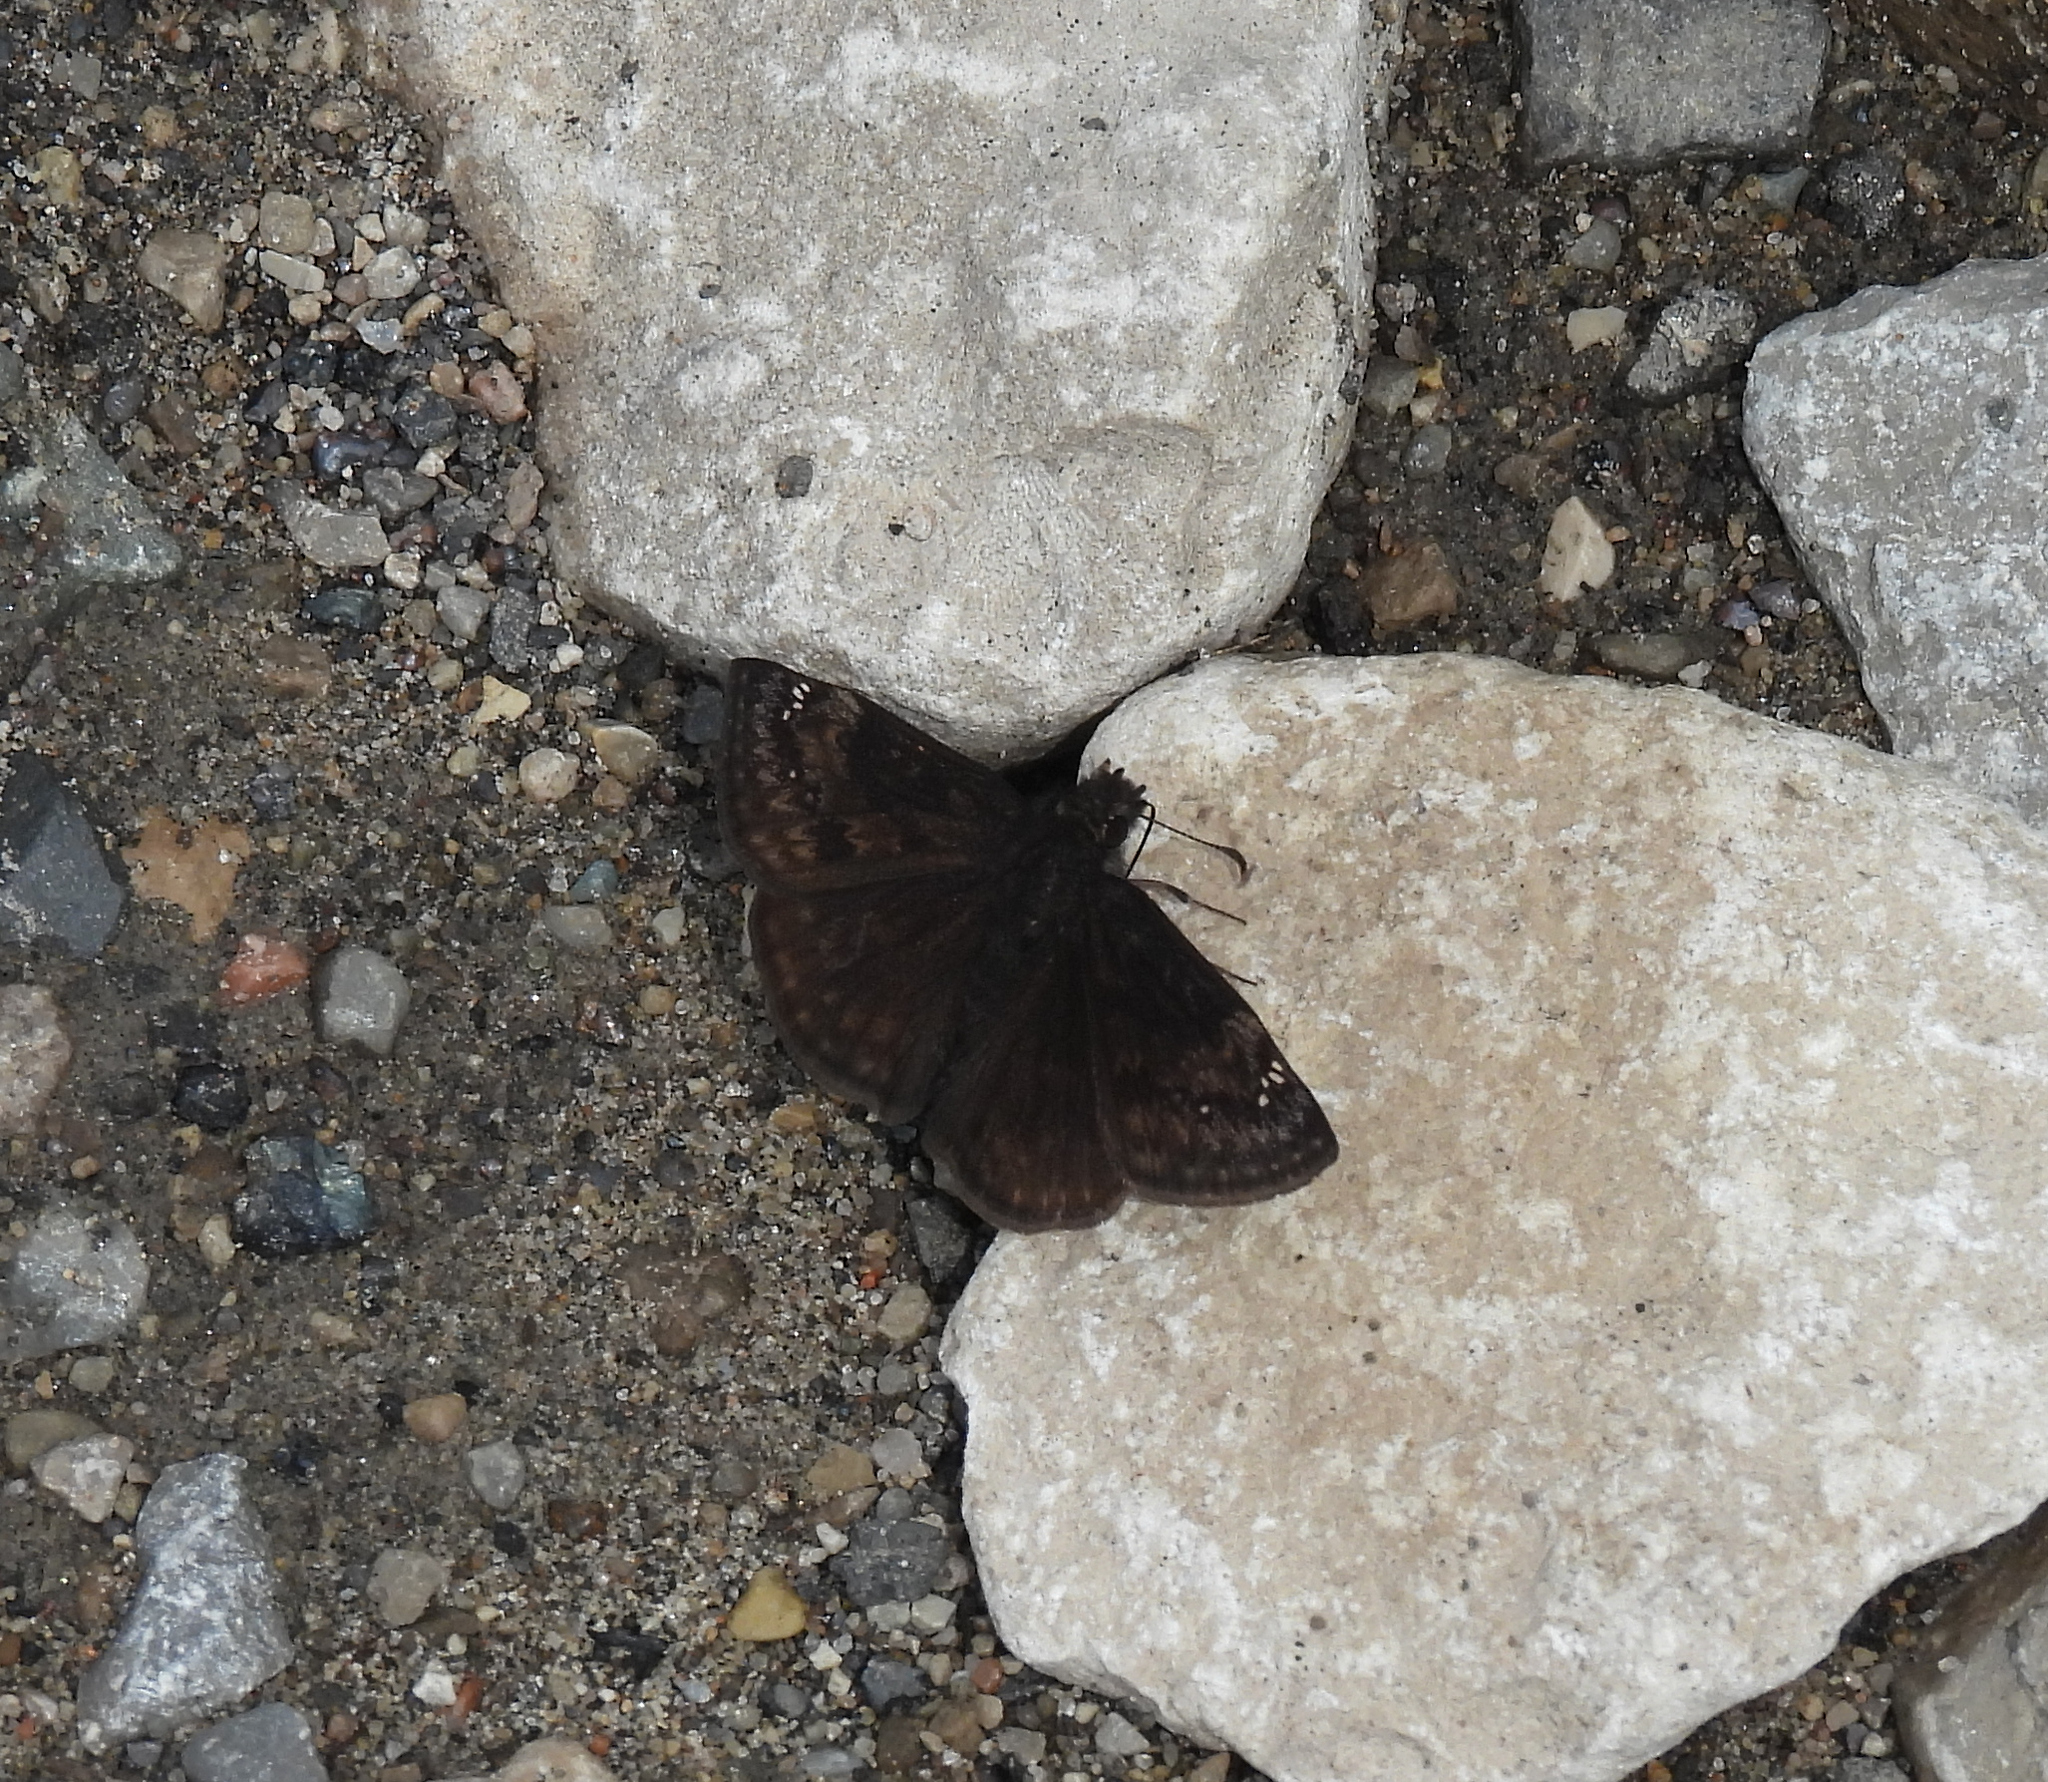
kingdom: Animalia
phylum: Arthropoda
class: Insecta
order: Lepidoptera
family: Hesperiidae
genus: Erynnis
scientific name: Erynnis baptisiae
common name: Wild indigo duskywing
